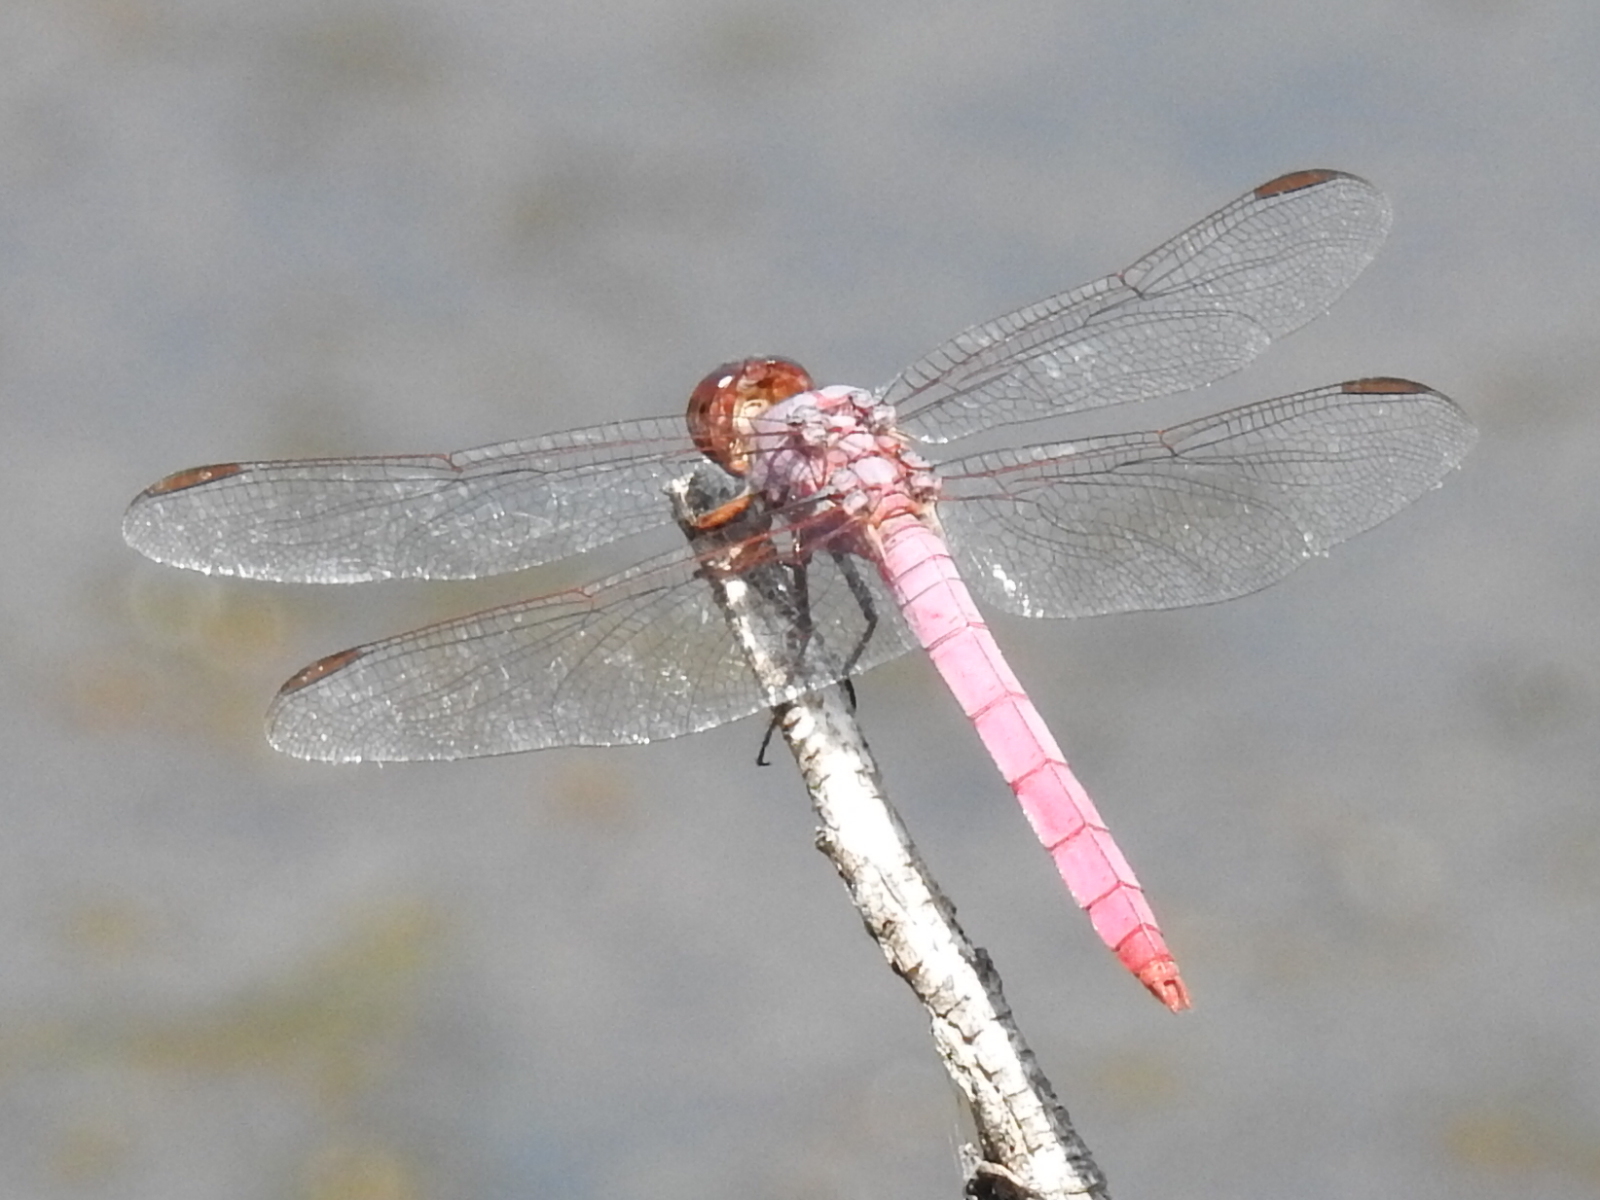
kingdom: Animalia
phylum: Arthropoda
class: Insecta
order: Odonata
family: Libellulidae
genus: Orthemis
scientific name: Orthemis ferruginea
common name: Roseate skimmer
